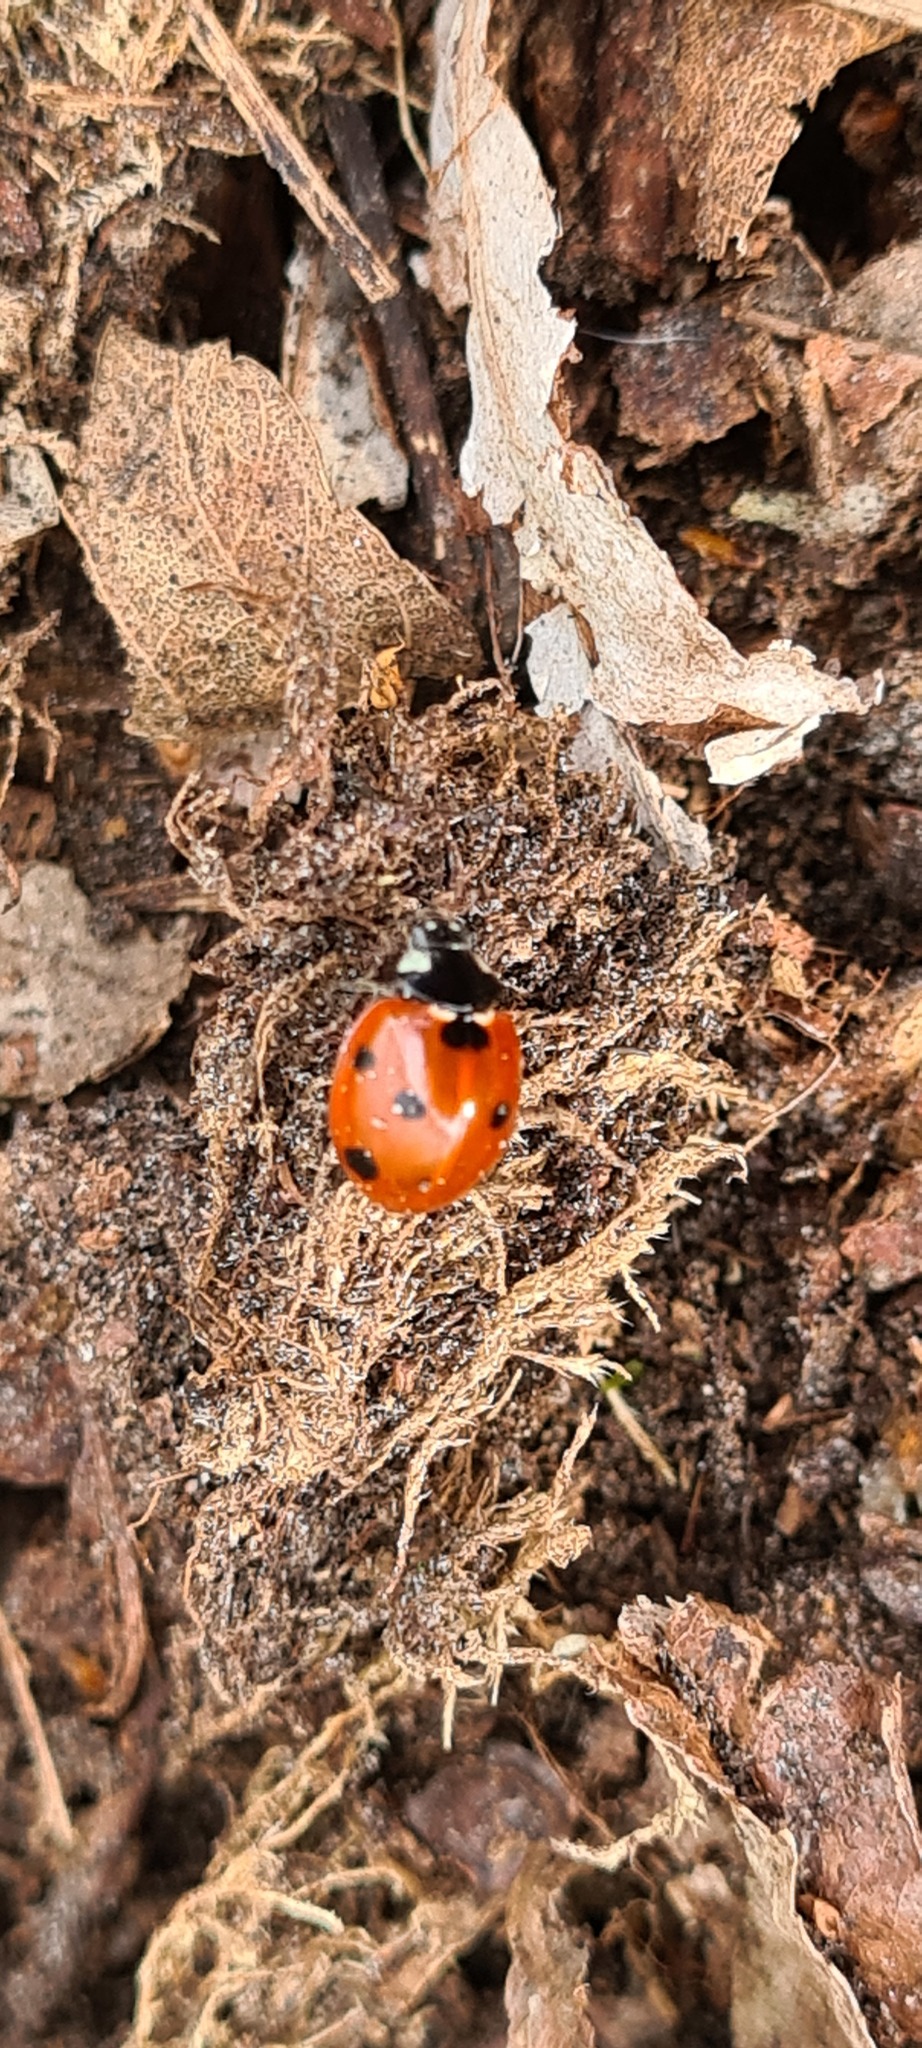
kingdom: Animalia
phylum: Arthropoda
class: Insecta
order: Coleoptera
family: Coccinellidae
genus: Coccinella
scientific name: Coccinella septempunctata
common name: Sevenspotted lady beetle
